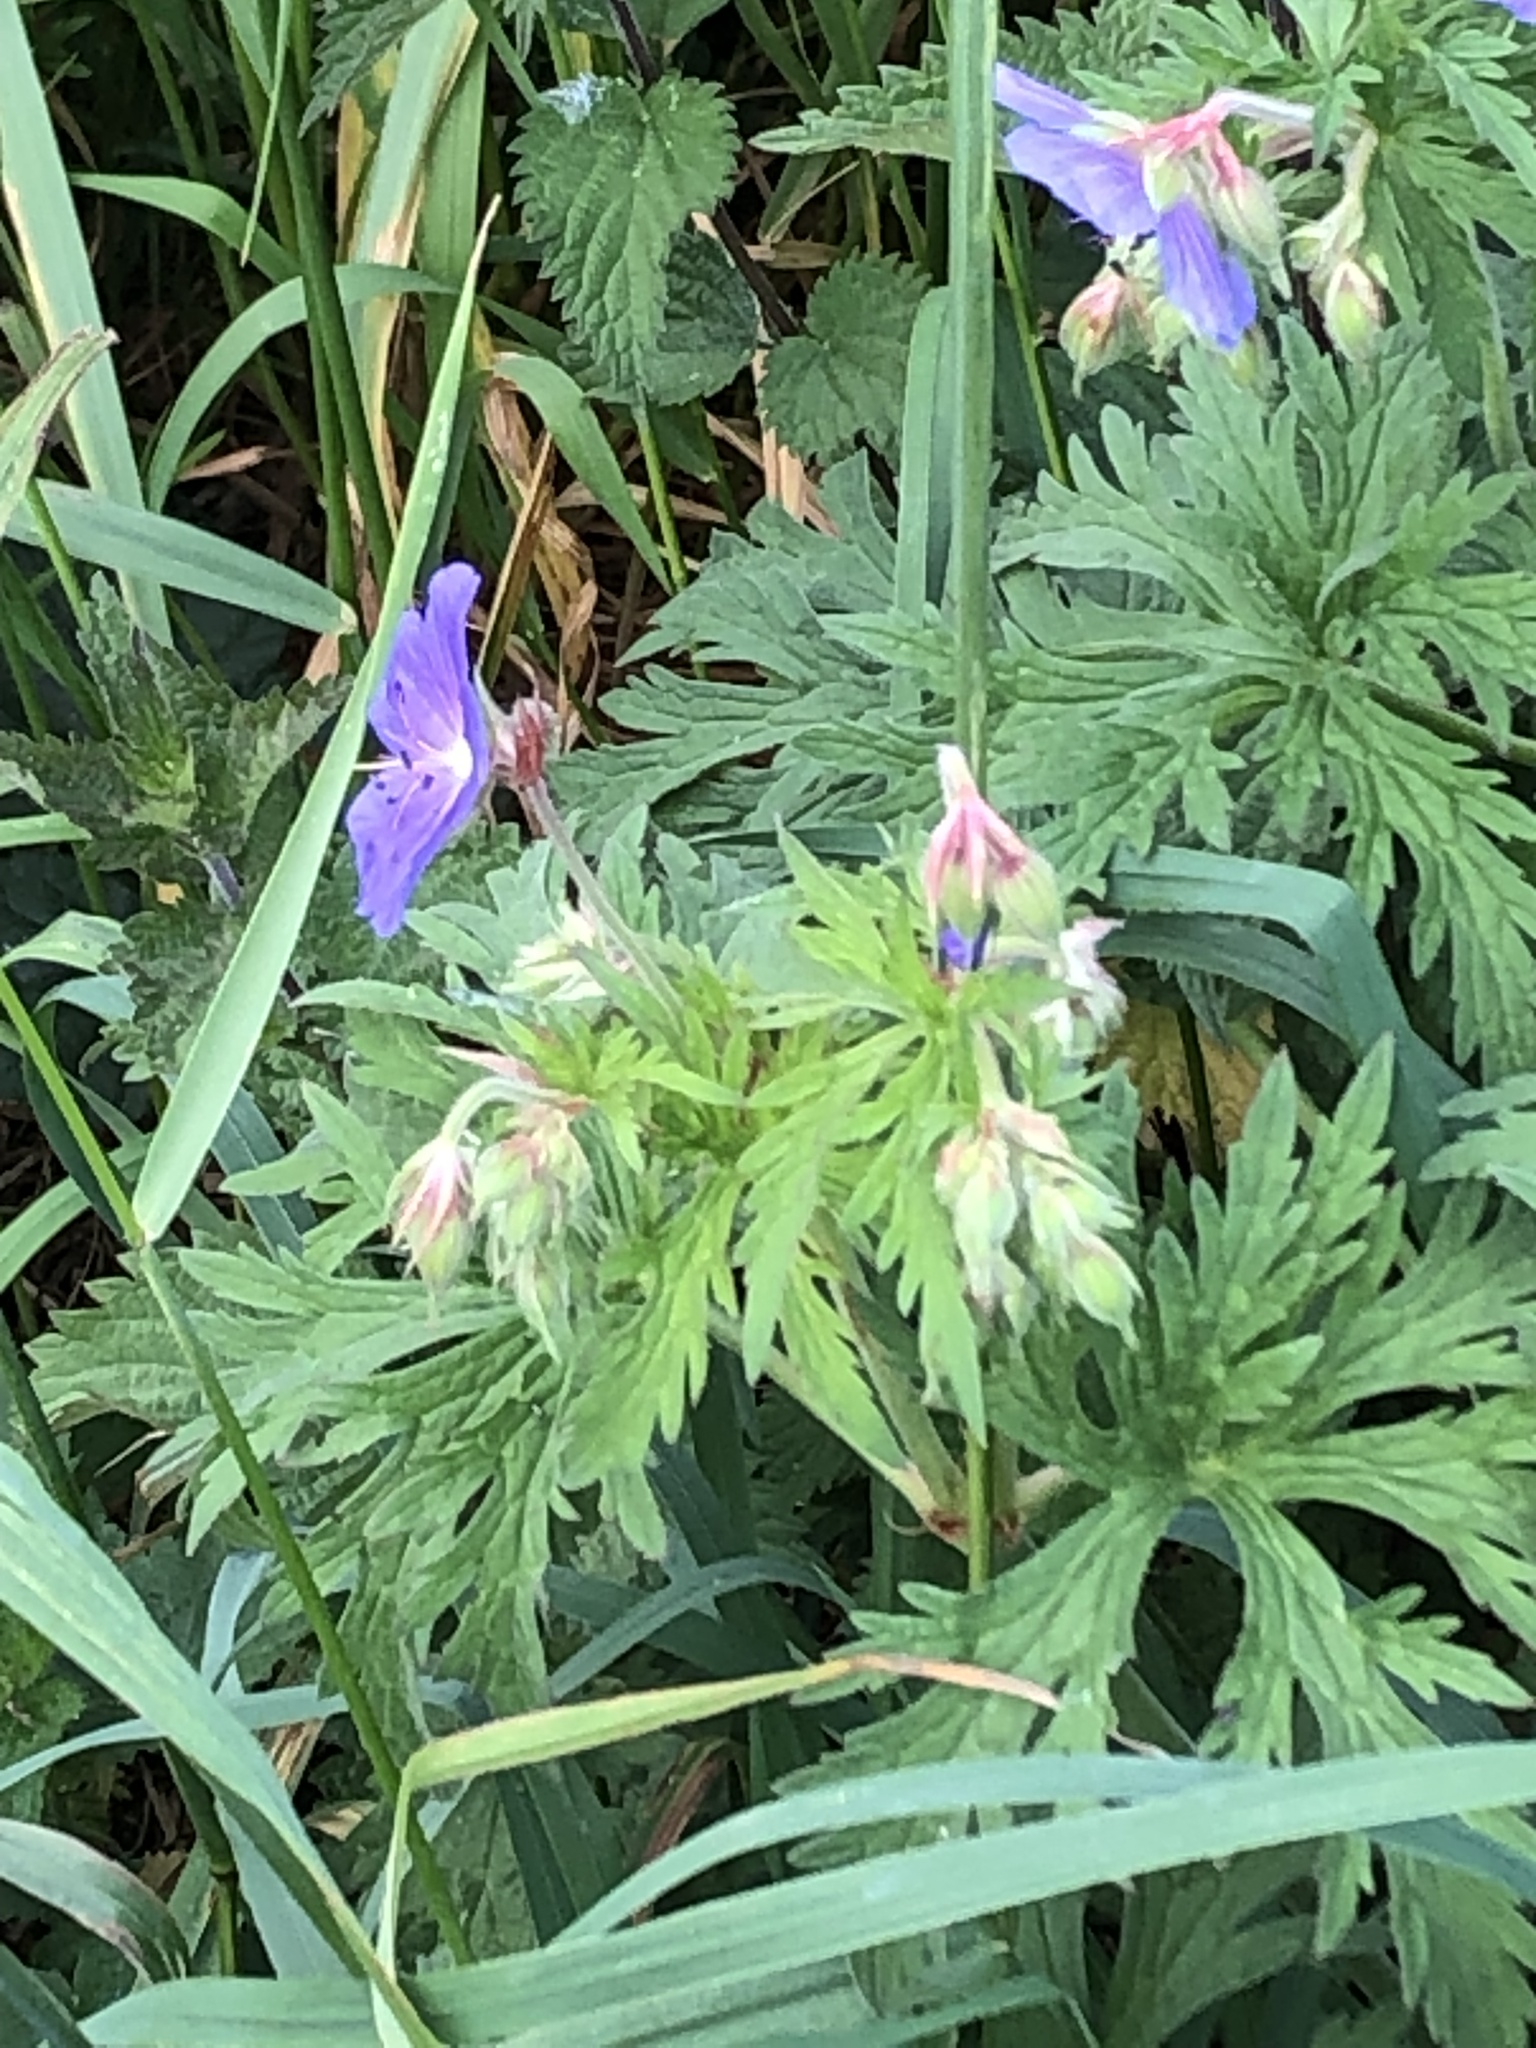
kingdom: Plantae
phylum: Tracheophyta
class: Magnoliopsida
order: Geraniales
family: Geraniaceae
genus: Geranium
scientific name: Geranium pratense
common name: Meadow crane's-bill
